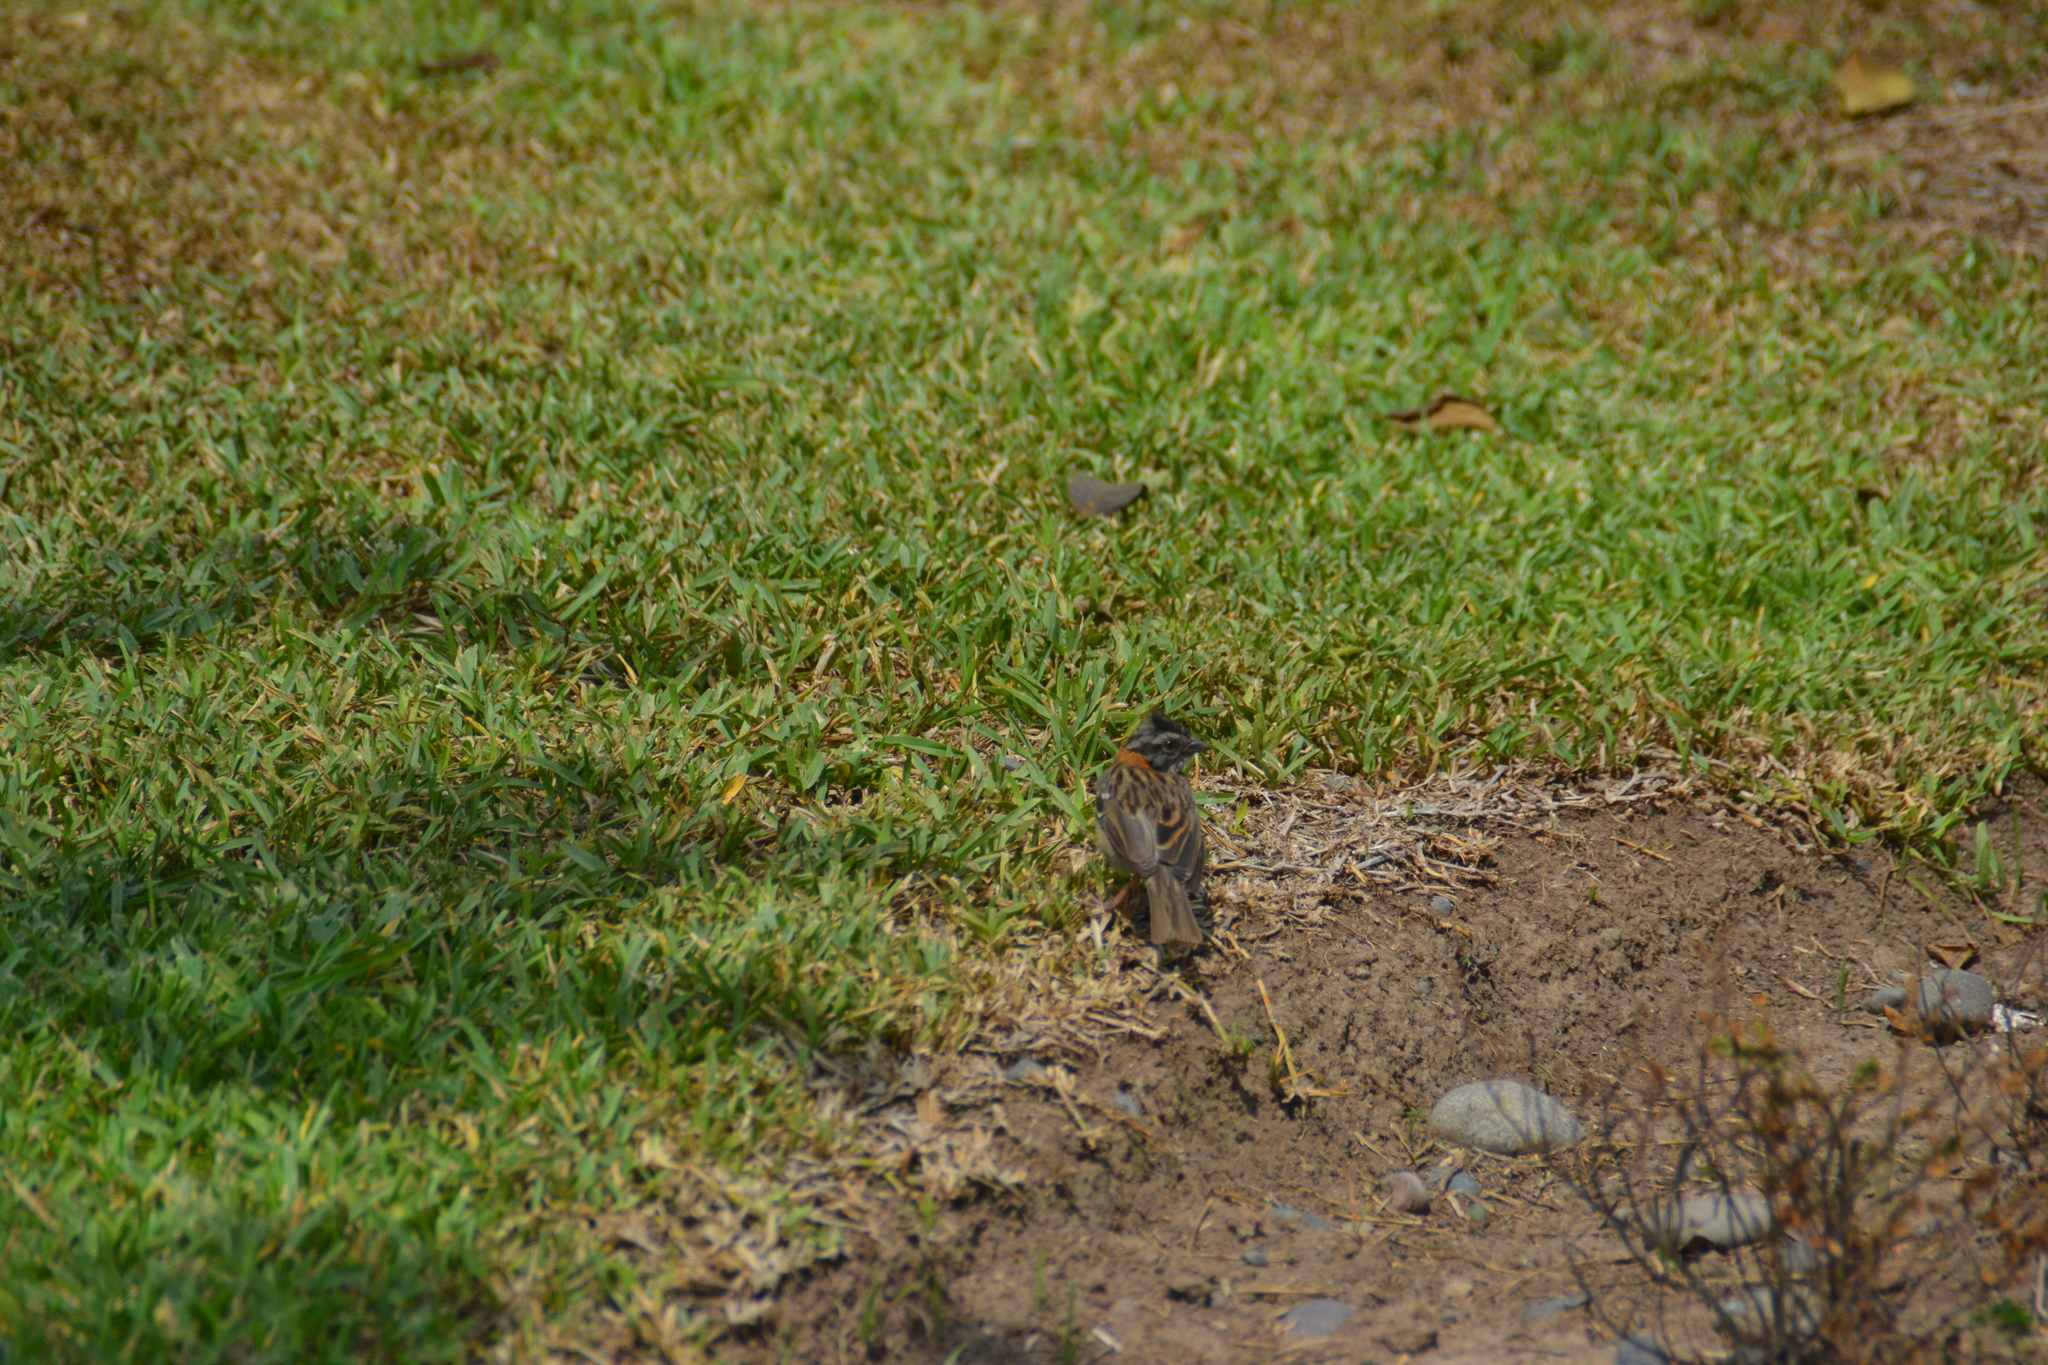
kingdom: Animalia
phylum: Chordata
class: Aves
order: Passeriformes
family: Passerellidae
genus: Zonotrichia
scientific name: Zonotrichia capensis
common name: Rufous-collared sparrow
